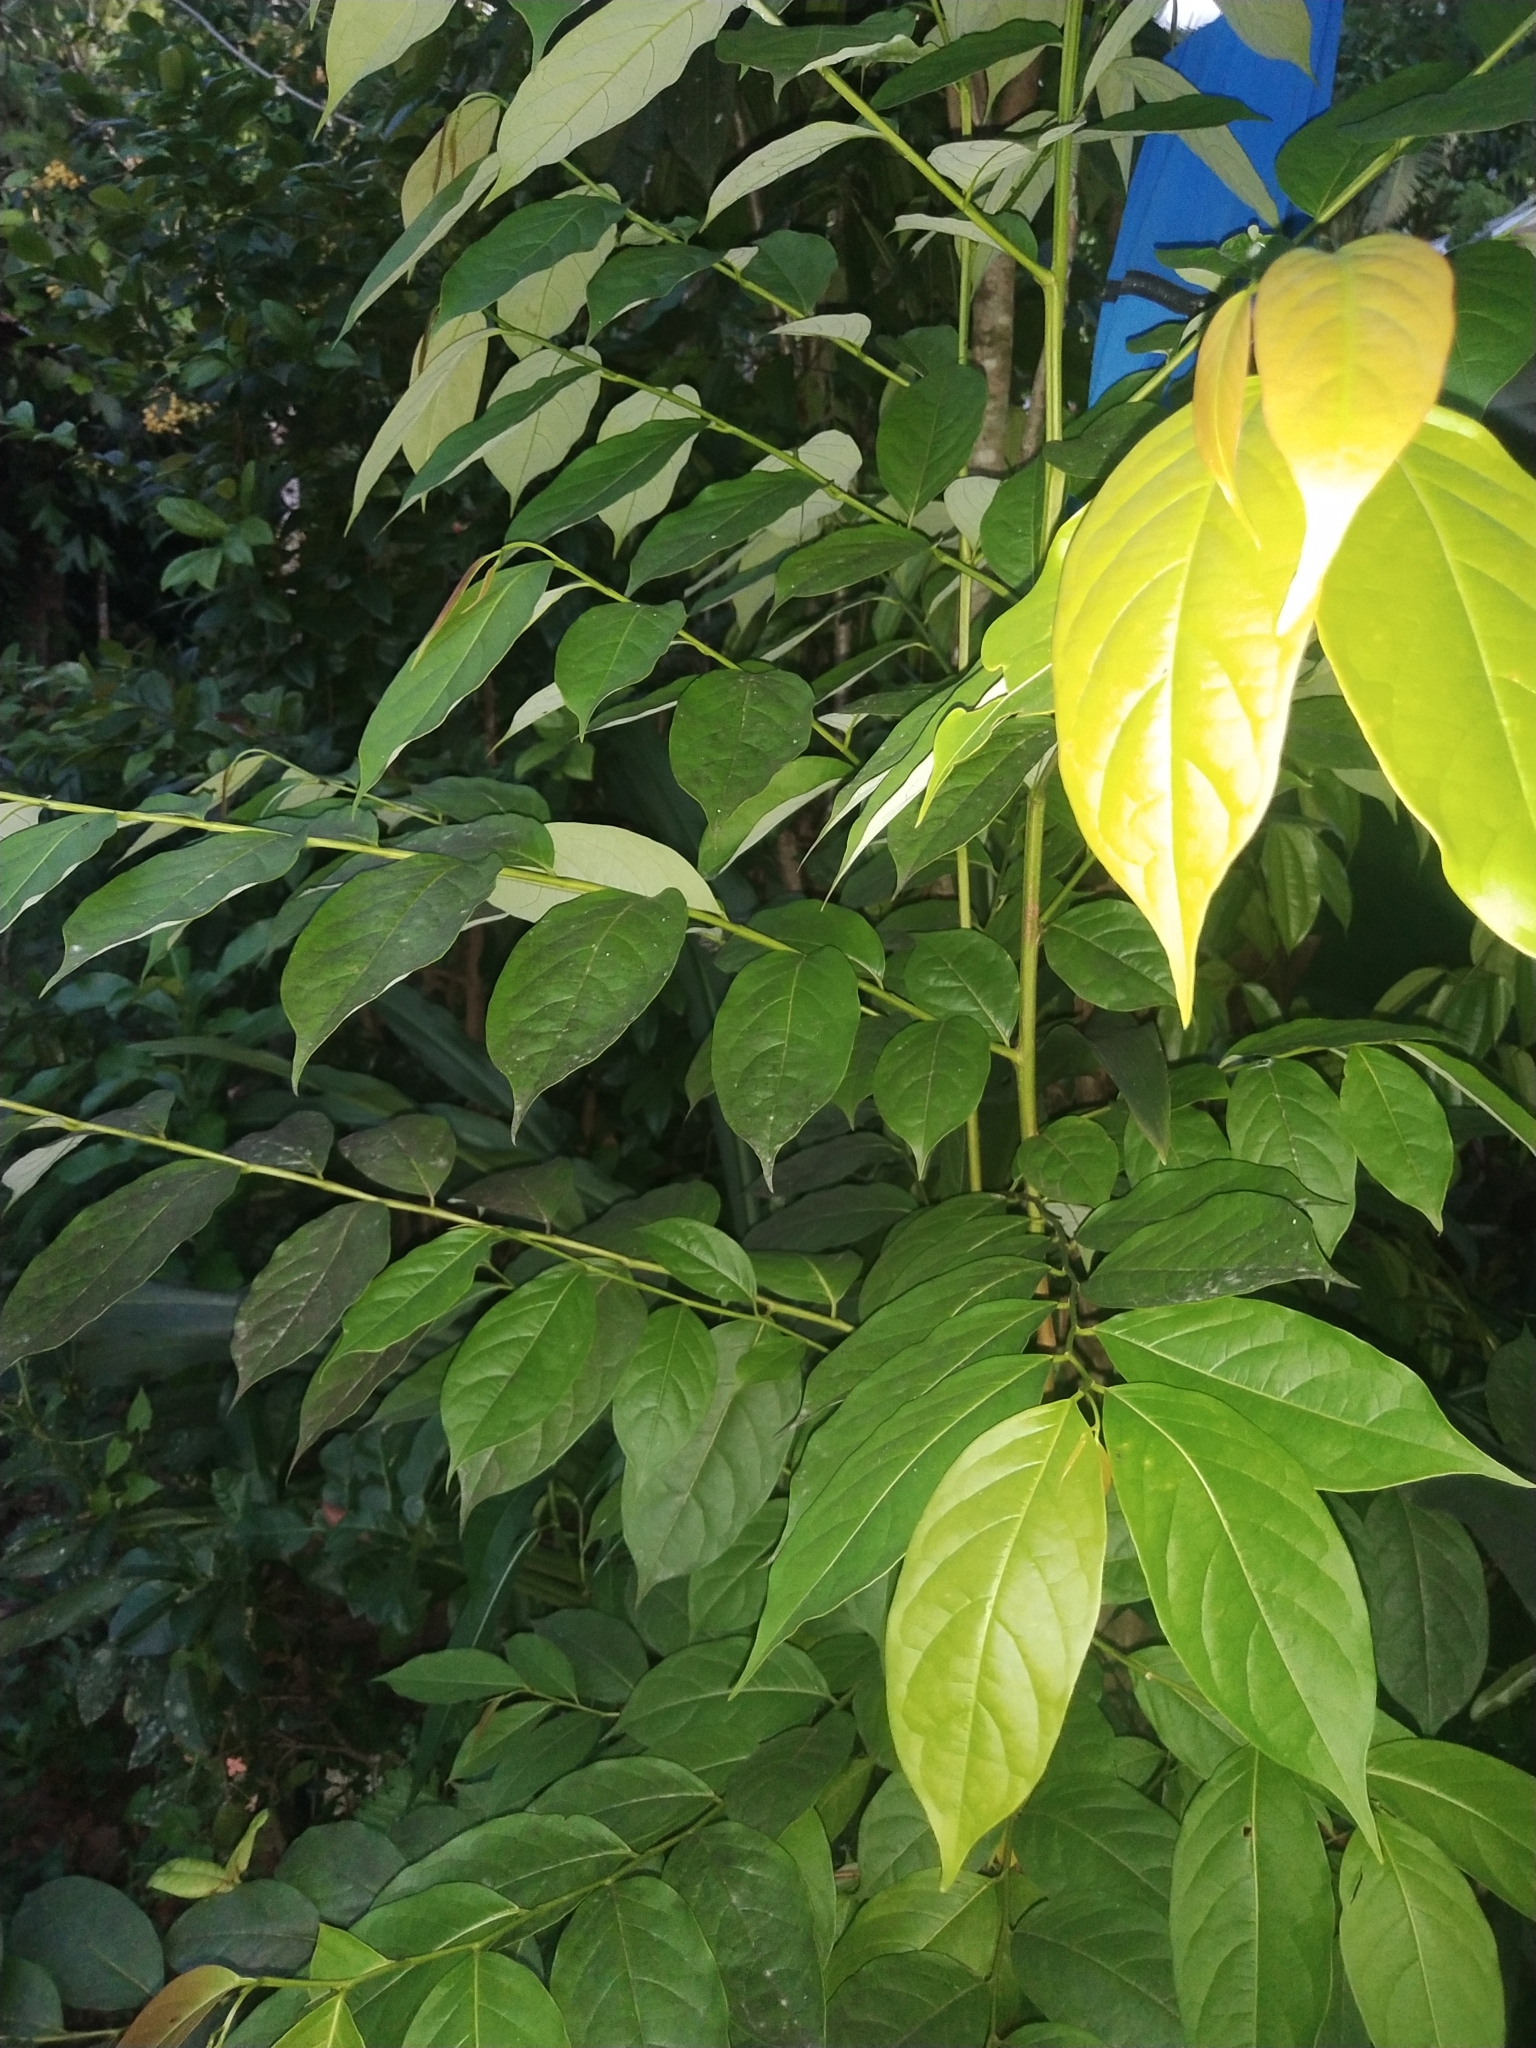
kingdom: Plantae
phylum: Tracheophyta
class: Magnoliopsida
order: Malpighiales
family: Phyllanthaceae
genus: Flueggea
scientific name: Flueggea flexuosa
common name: Poumuli
